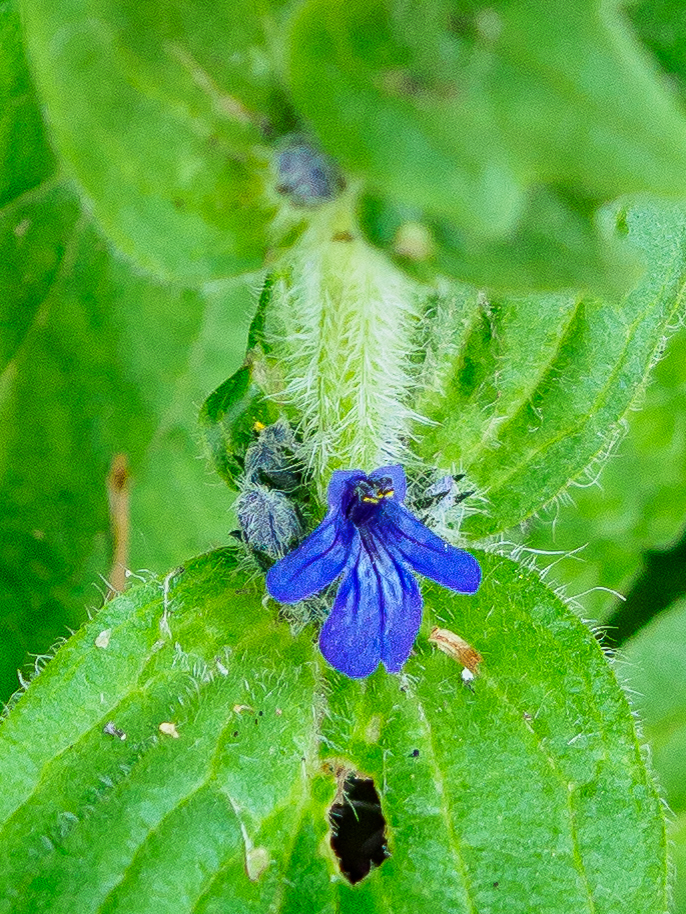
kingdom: Plantae
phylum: Tracheophyta
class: Magnoliopsida
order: Lamiales
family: Lamiaceae
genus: Ajuga
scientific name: Ajuga genevensis
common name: Blue bugle
